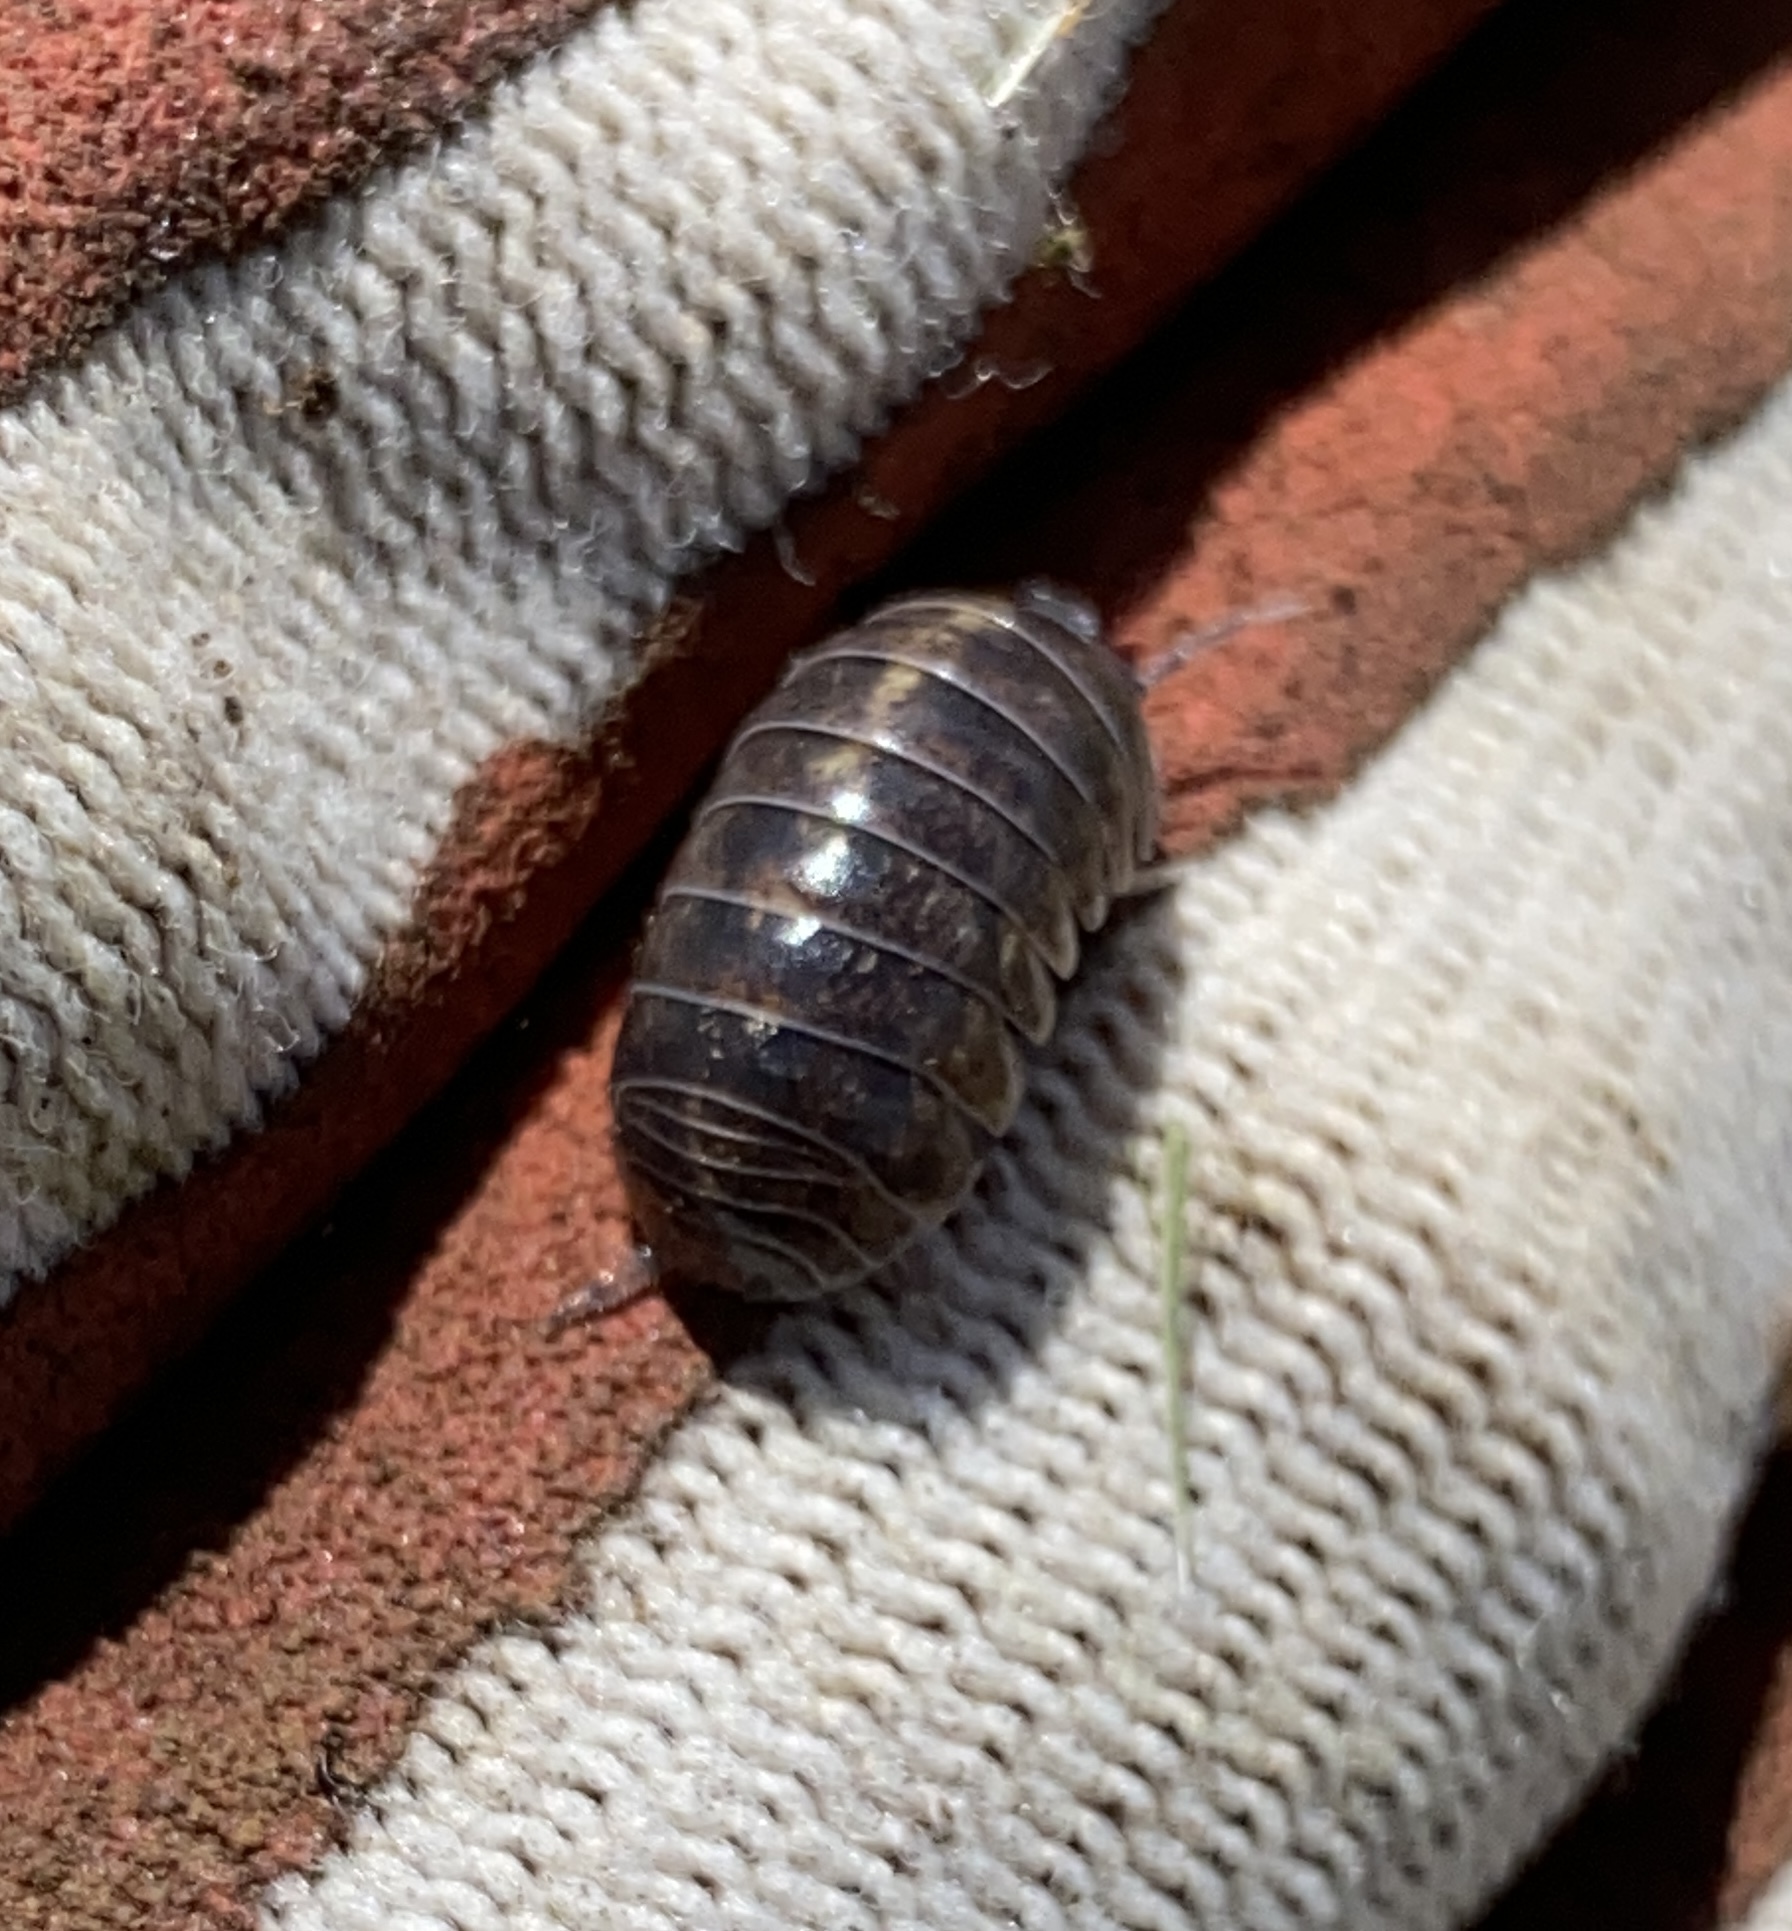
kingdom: Animalia
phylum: Arthropoda
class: Malacostraca
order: Isopoda
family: Armadillidiidae
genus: Armadillidium
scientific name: Armadillidium vulgare
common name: Common pill woodlouse
